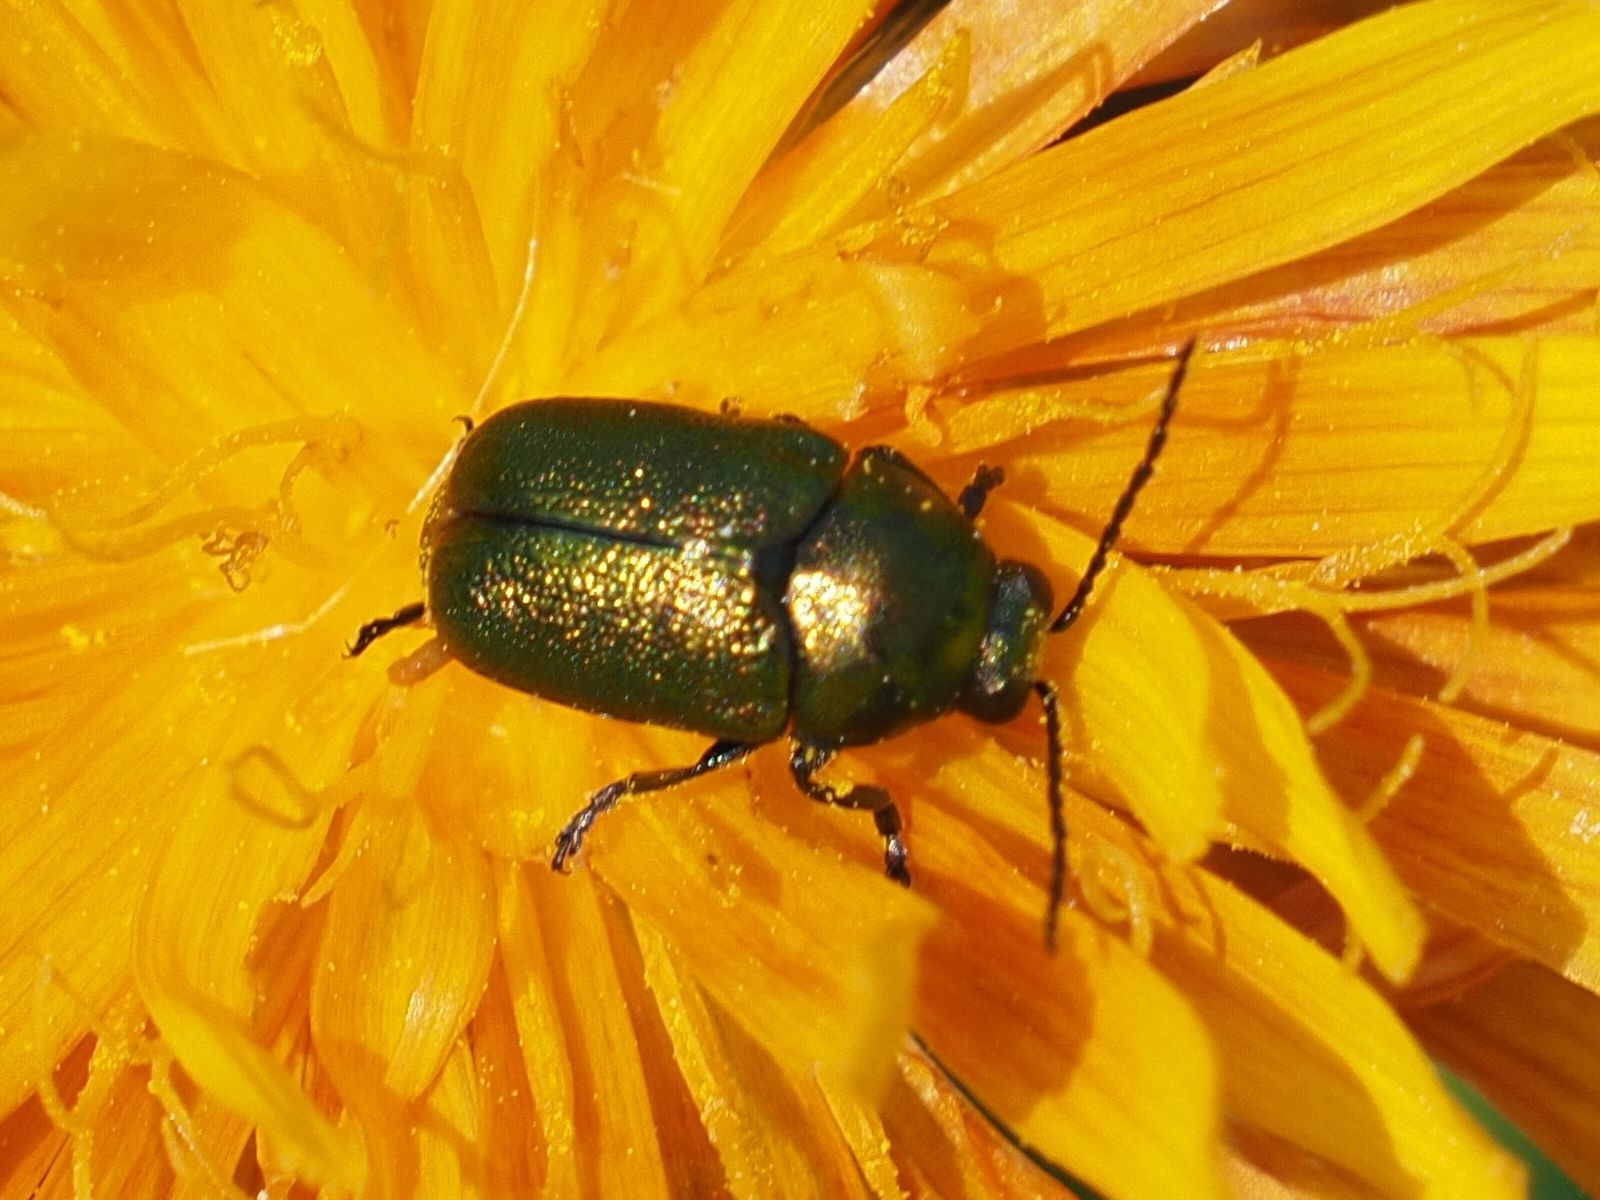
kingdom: Animalia
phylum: Arthropoda
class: Insecta
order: Coleoptera
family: Chrysomelidae
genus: Cryptocephalus
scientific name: Cryptocephalus
